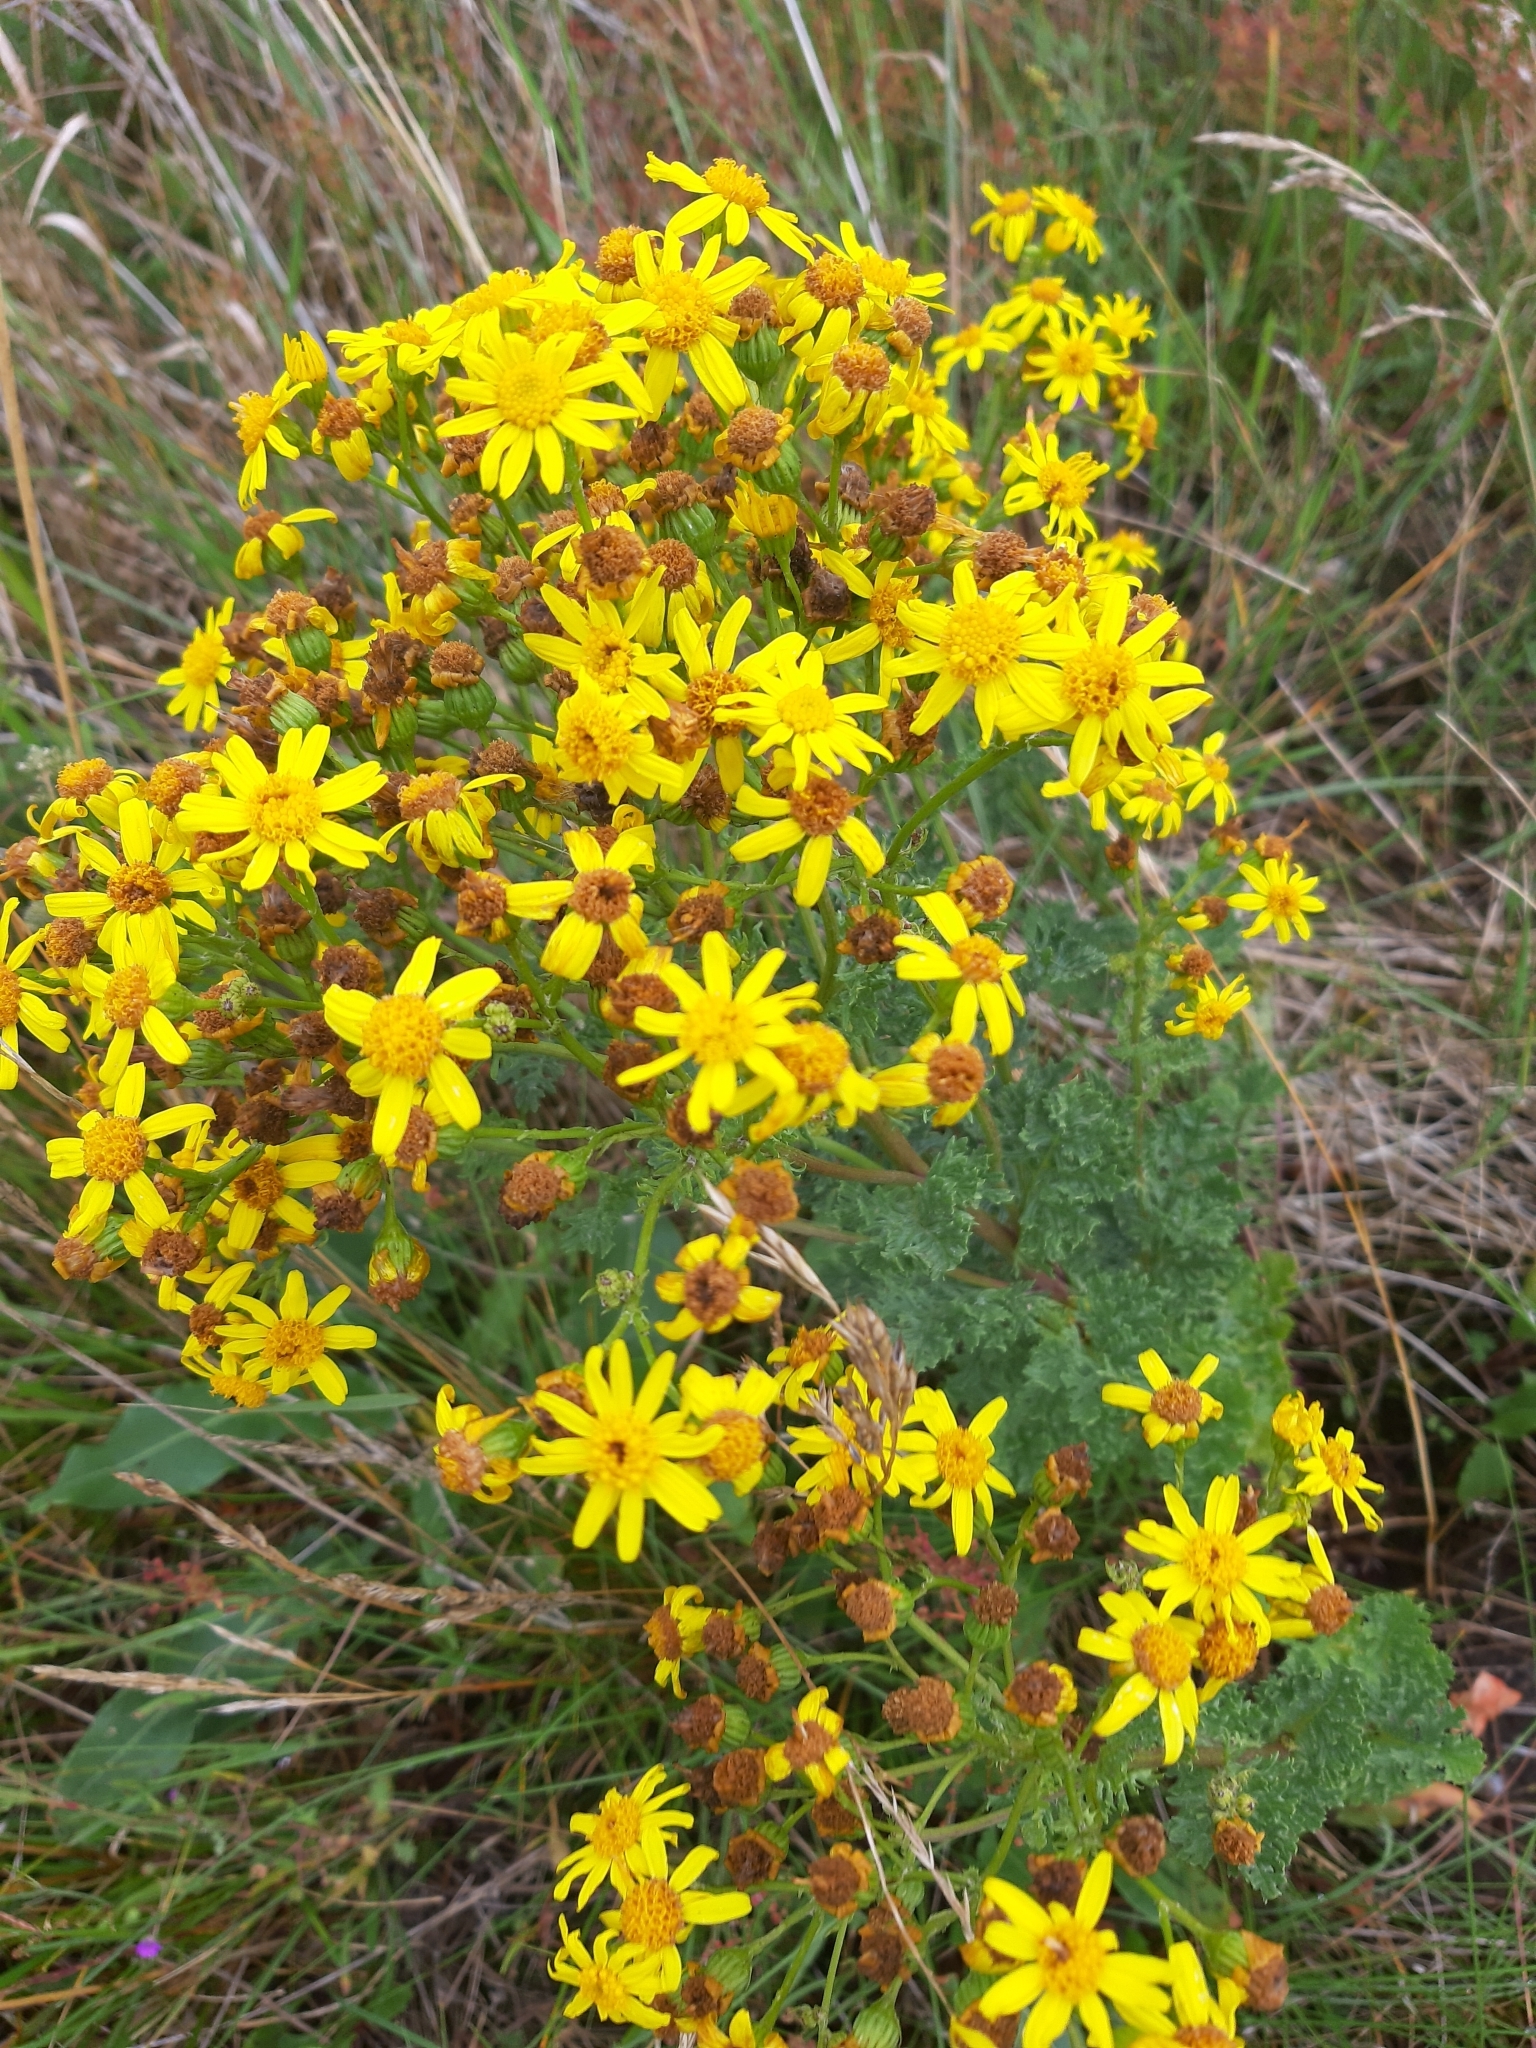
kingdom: Plantae
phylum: Tracheophyta
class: Magnoliopsida
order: Asterales
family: Asteraceae
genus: Jacobaea
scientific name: Jacobaea vulgaris
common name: Stinking willie
